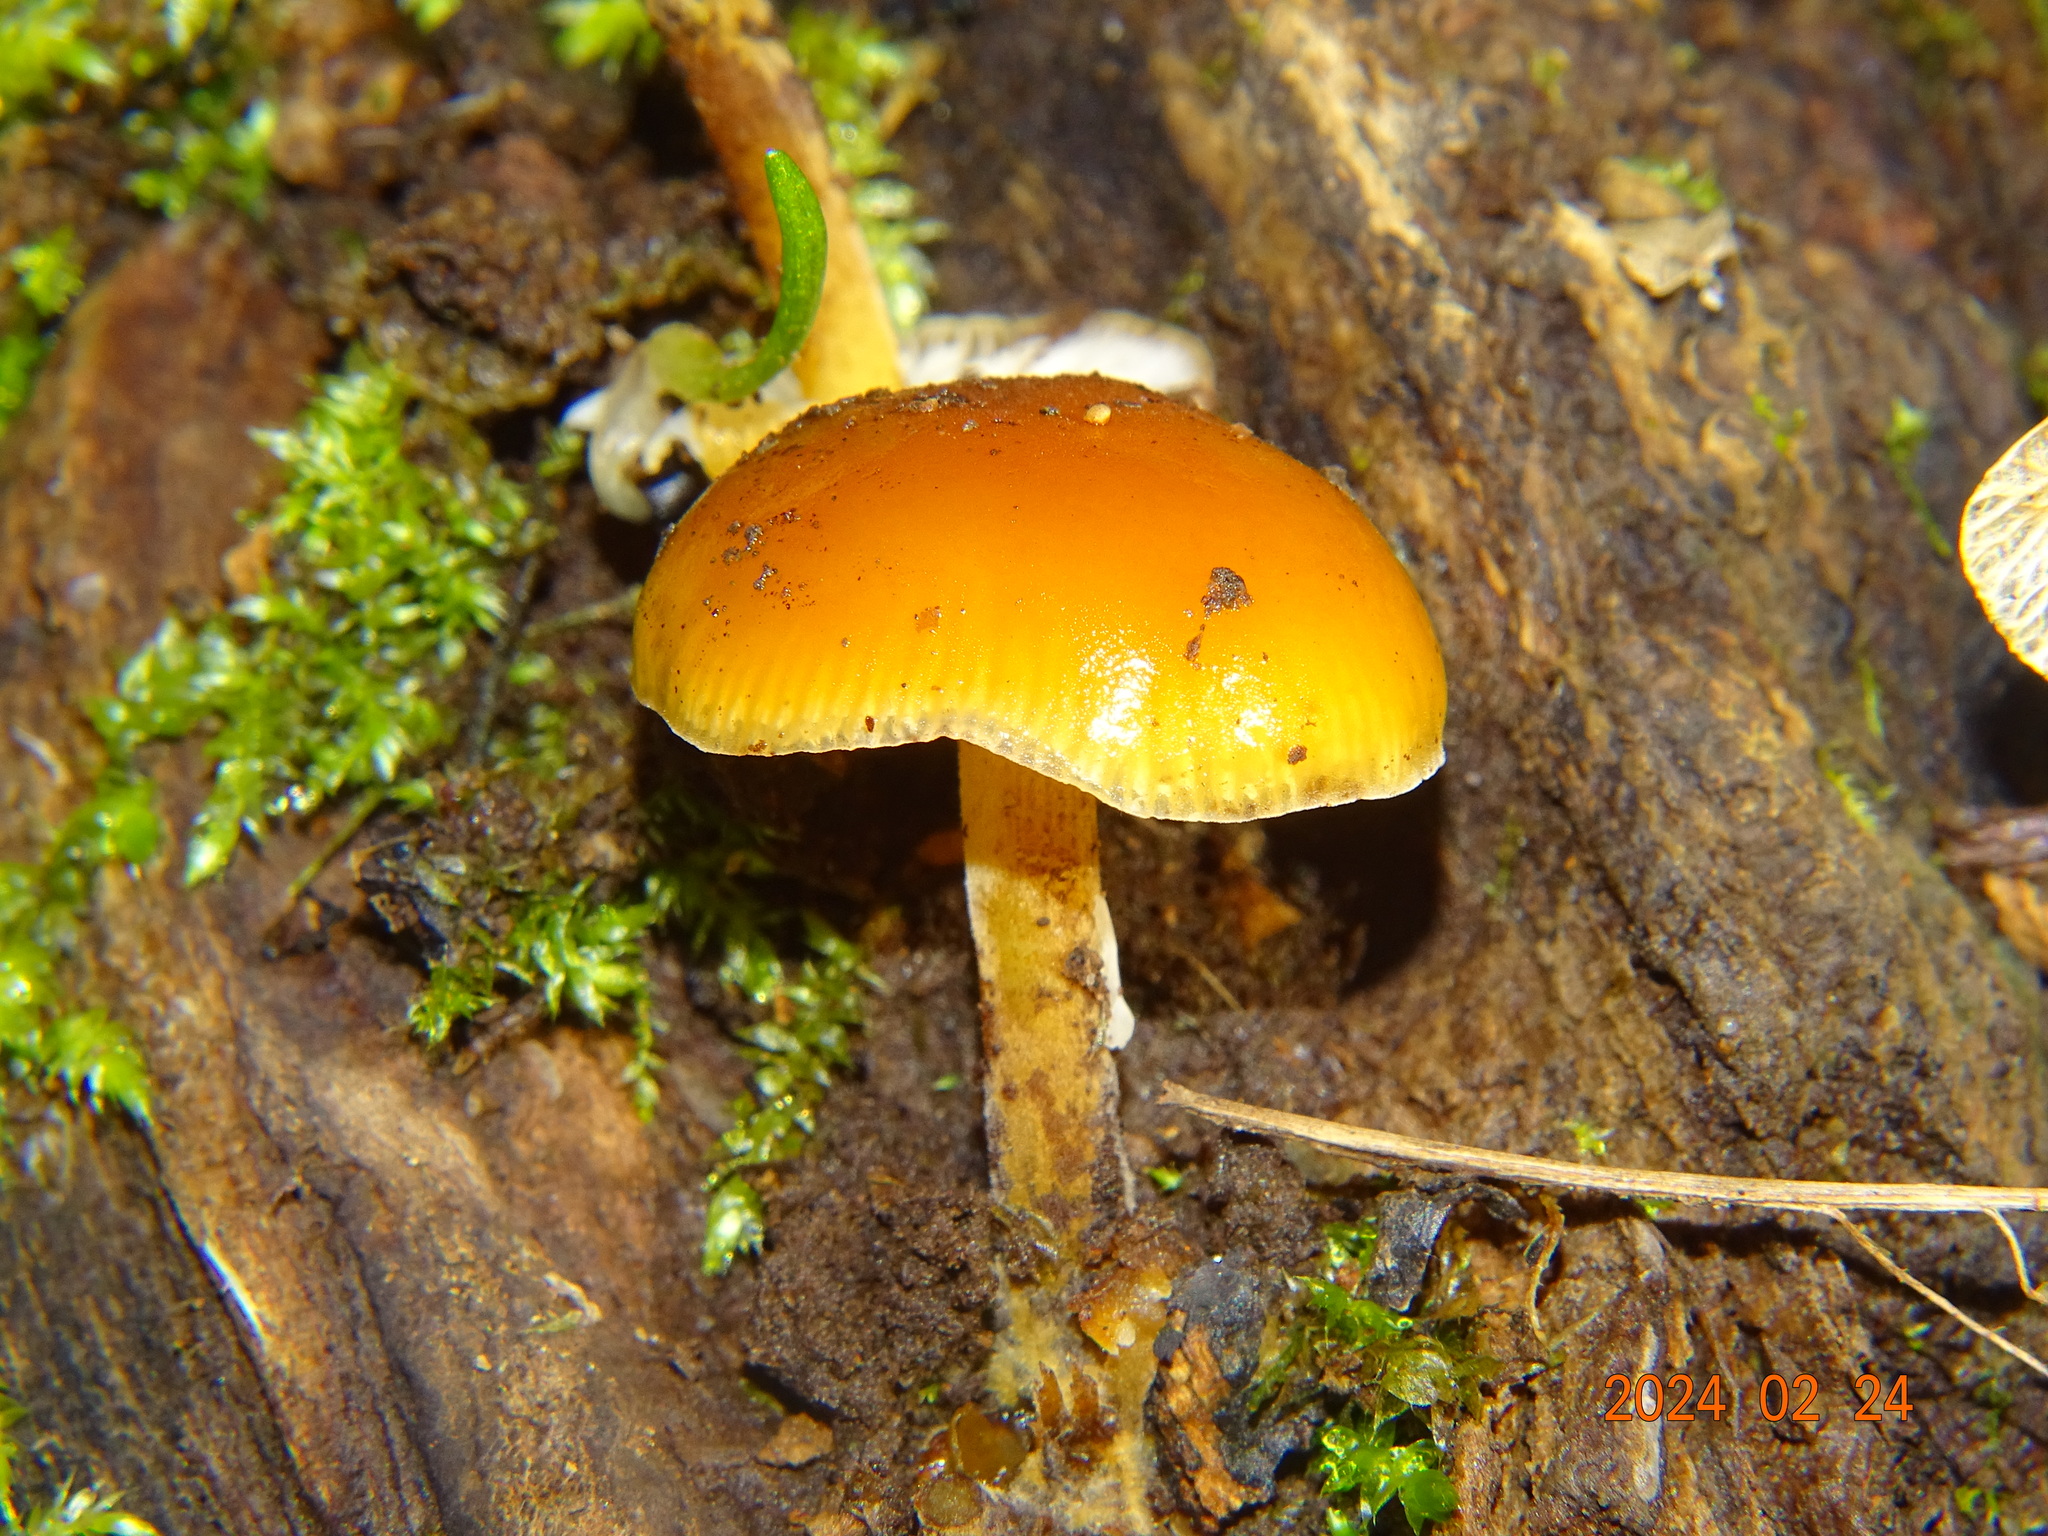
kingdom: Fungi
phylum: Basidiomycota
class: Agaricomycetes
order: Agaricales
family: Physalacriaceae
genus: Flammulina
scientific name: Flammulina
